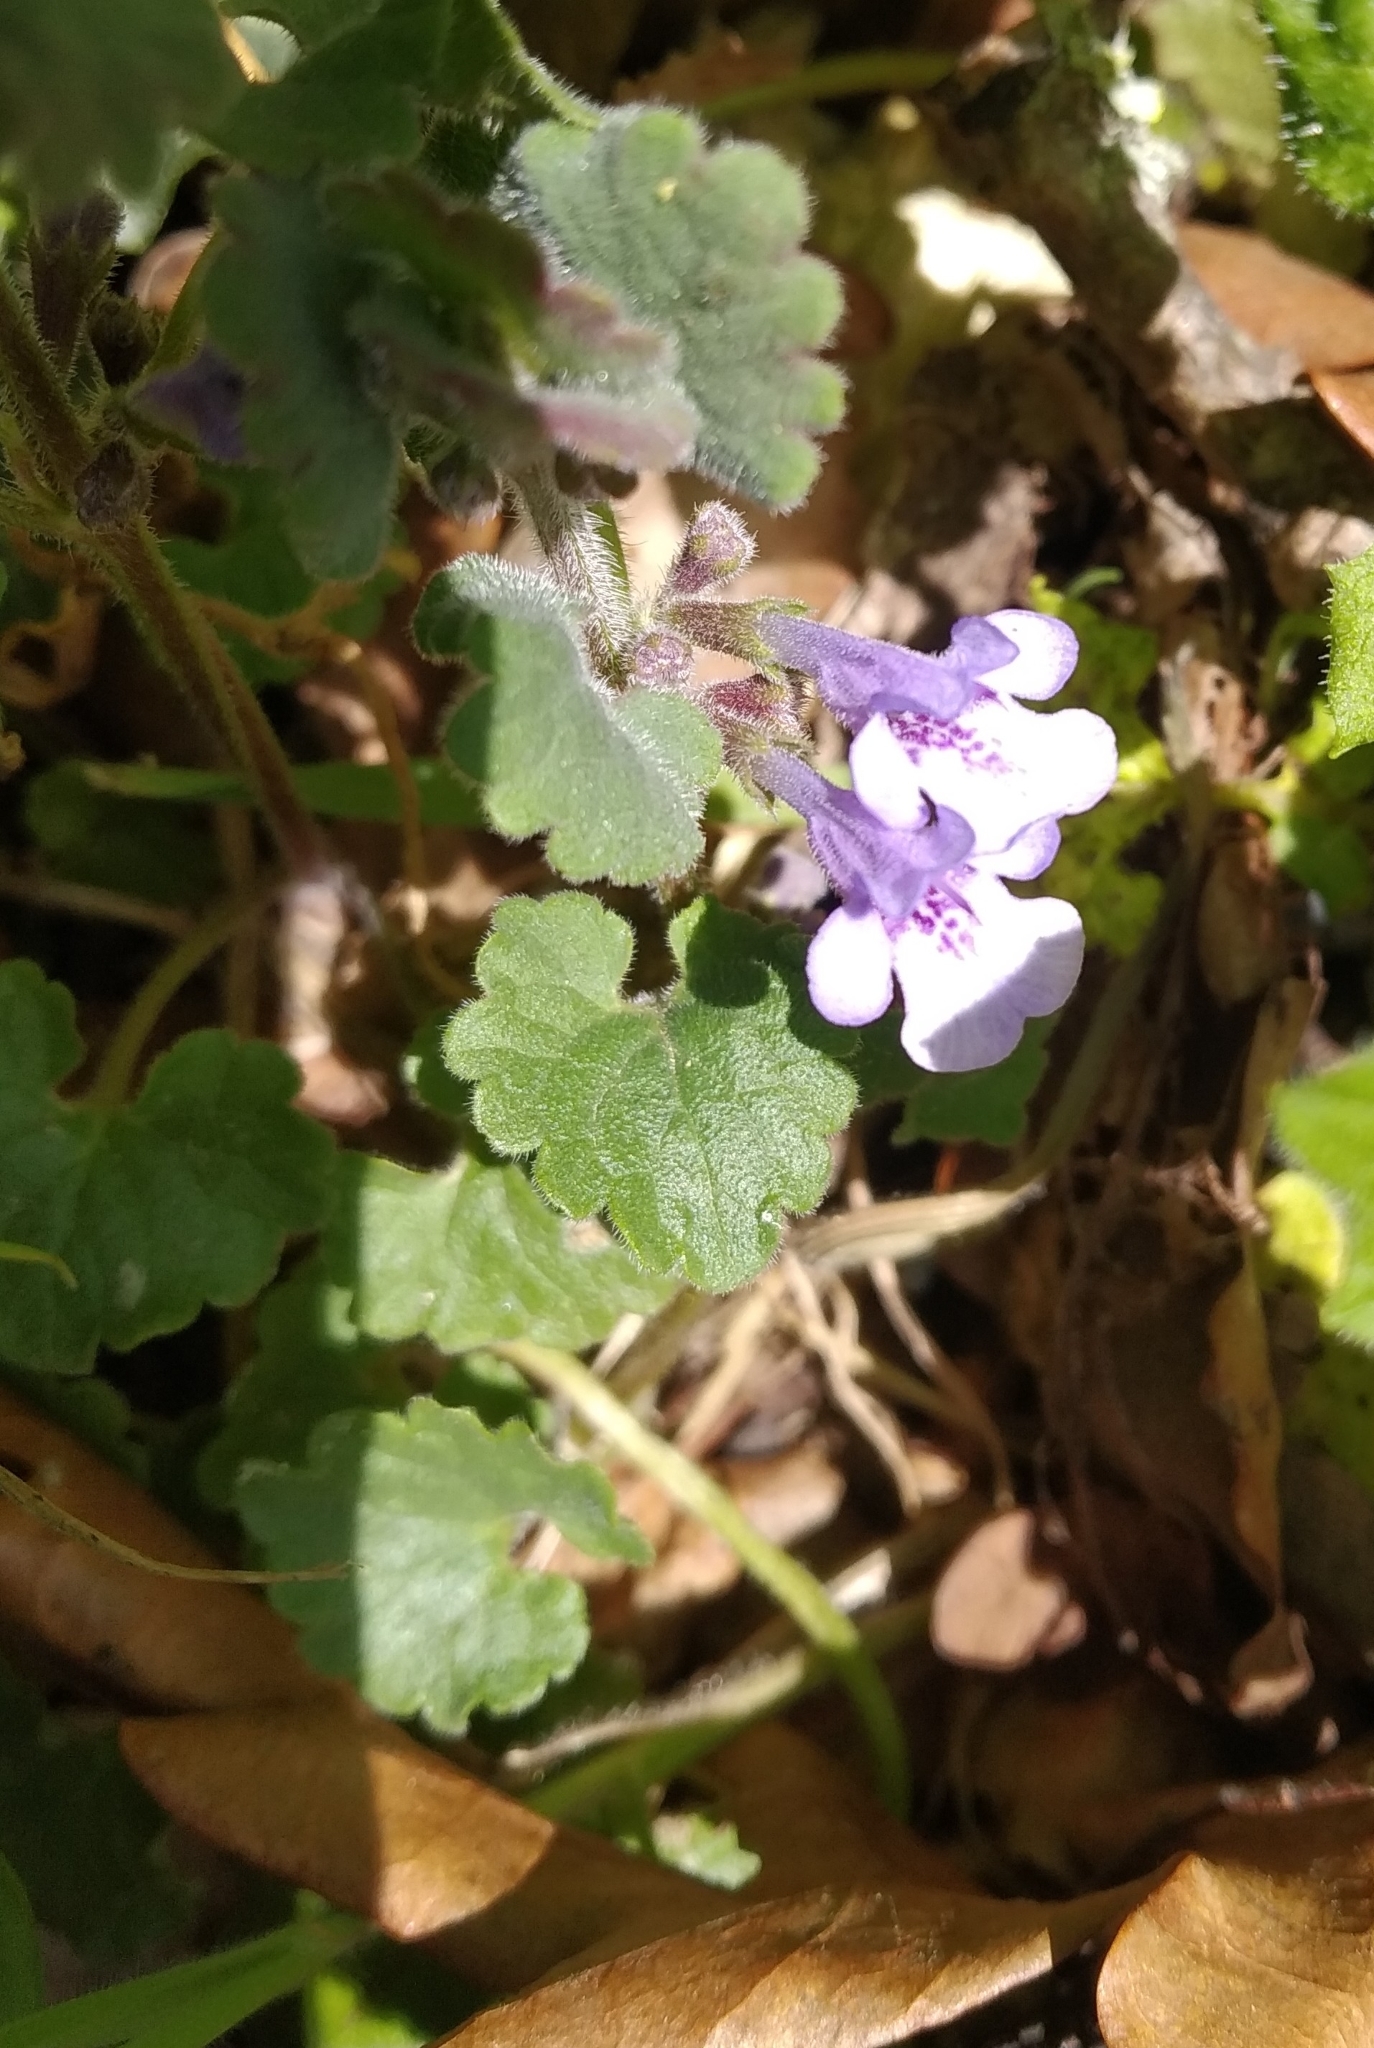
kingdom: Plantae
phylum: Tracheophyta
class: Magnoliopsida
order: Lamiales
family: Lamiaceae
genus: Glechoma
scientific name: Glechoma hederacea
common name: Ground ivy
